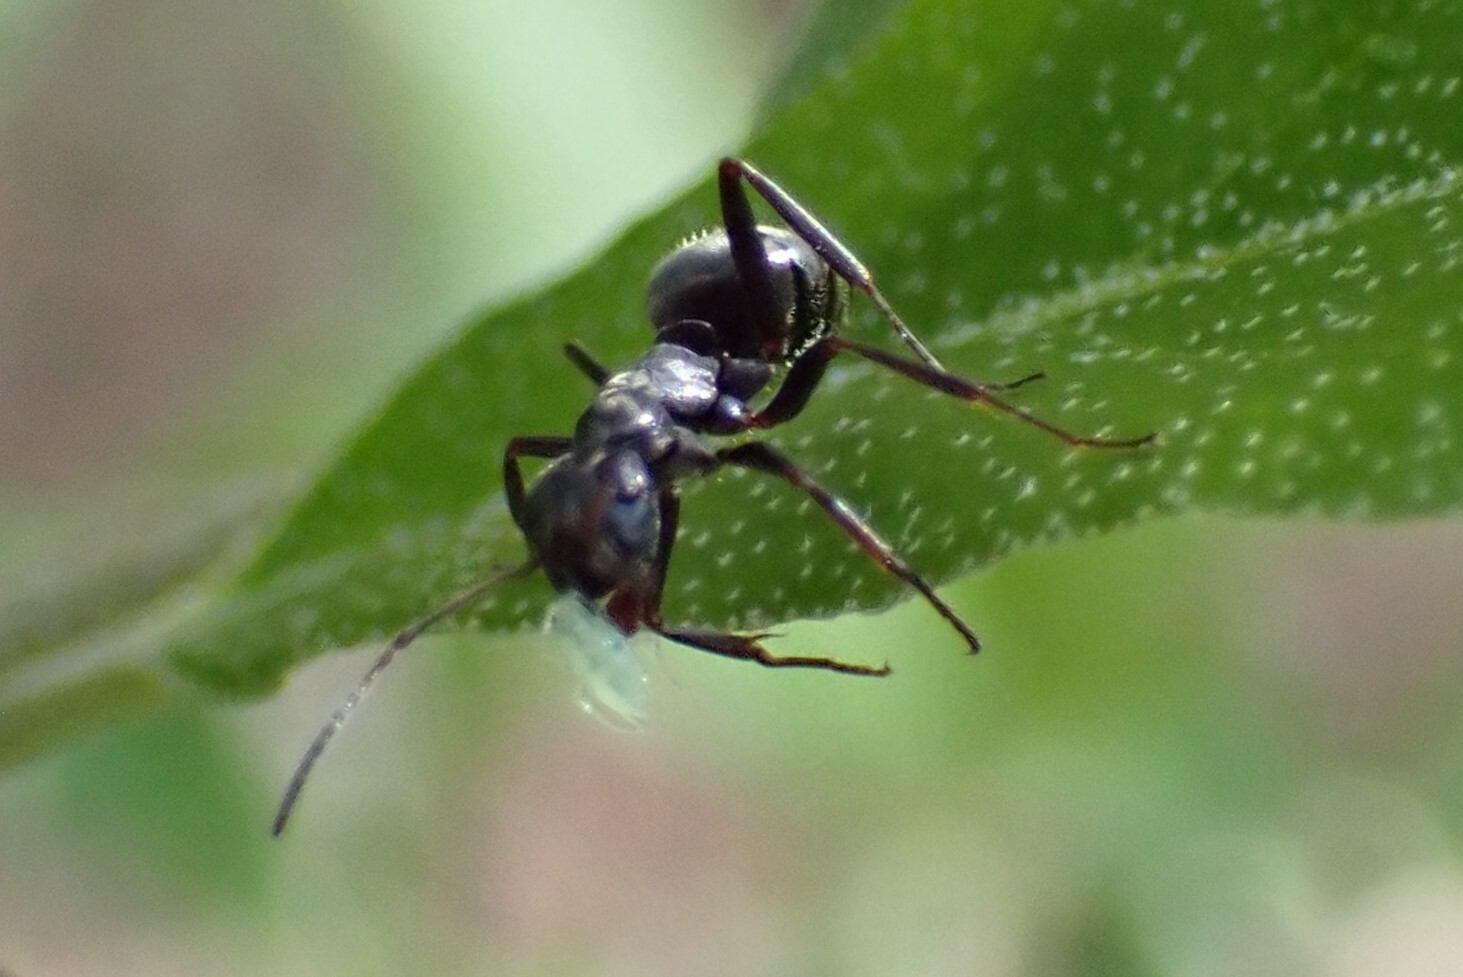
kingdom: Animalia
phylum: Arthropoda
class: Insecta
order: Hymenoptera
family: Formicidae
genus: Formica
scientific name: Formica
